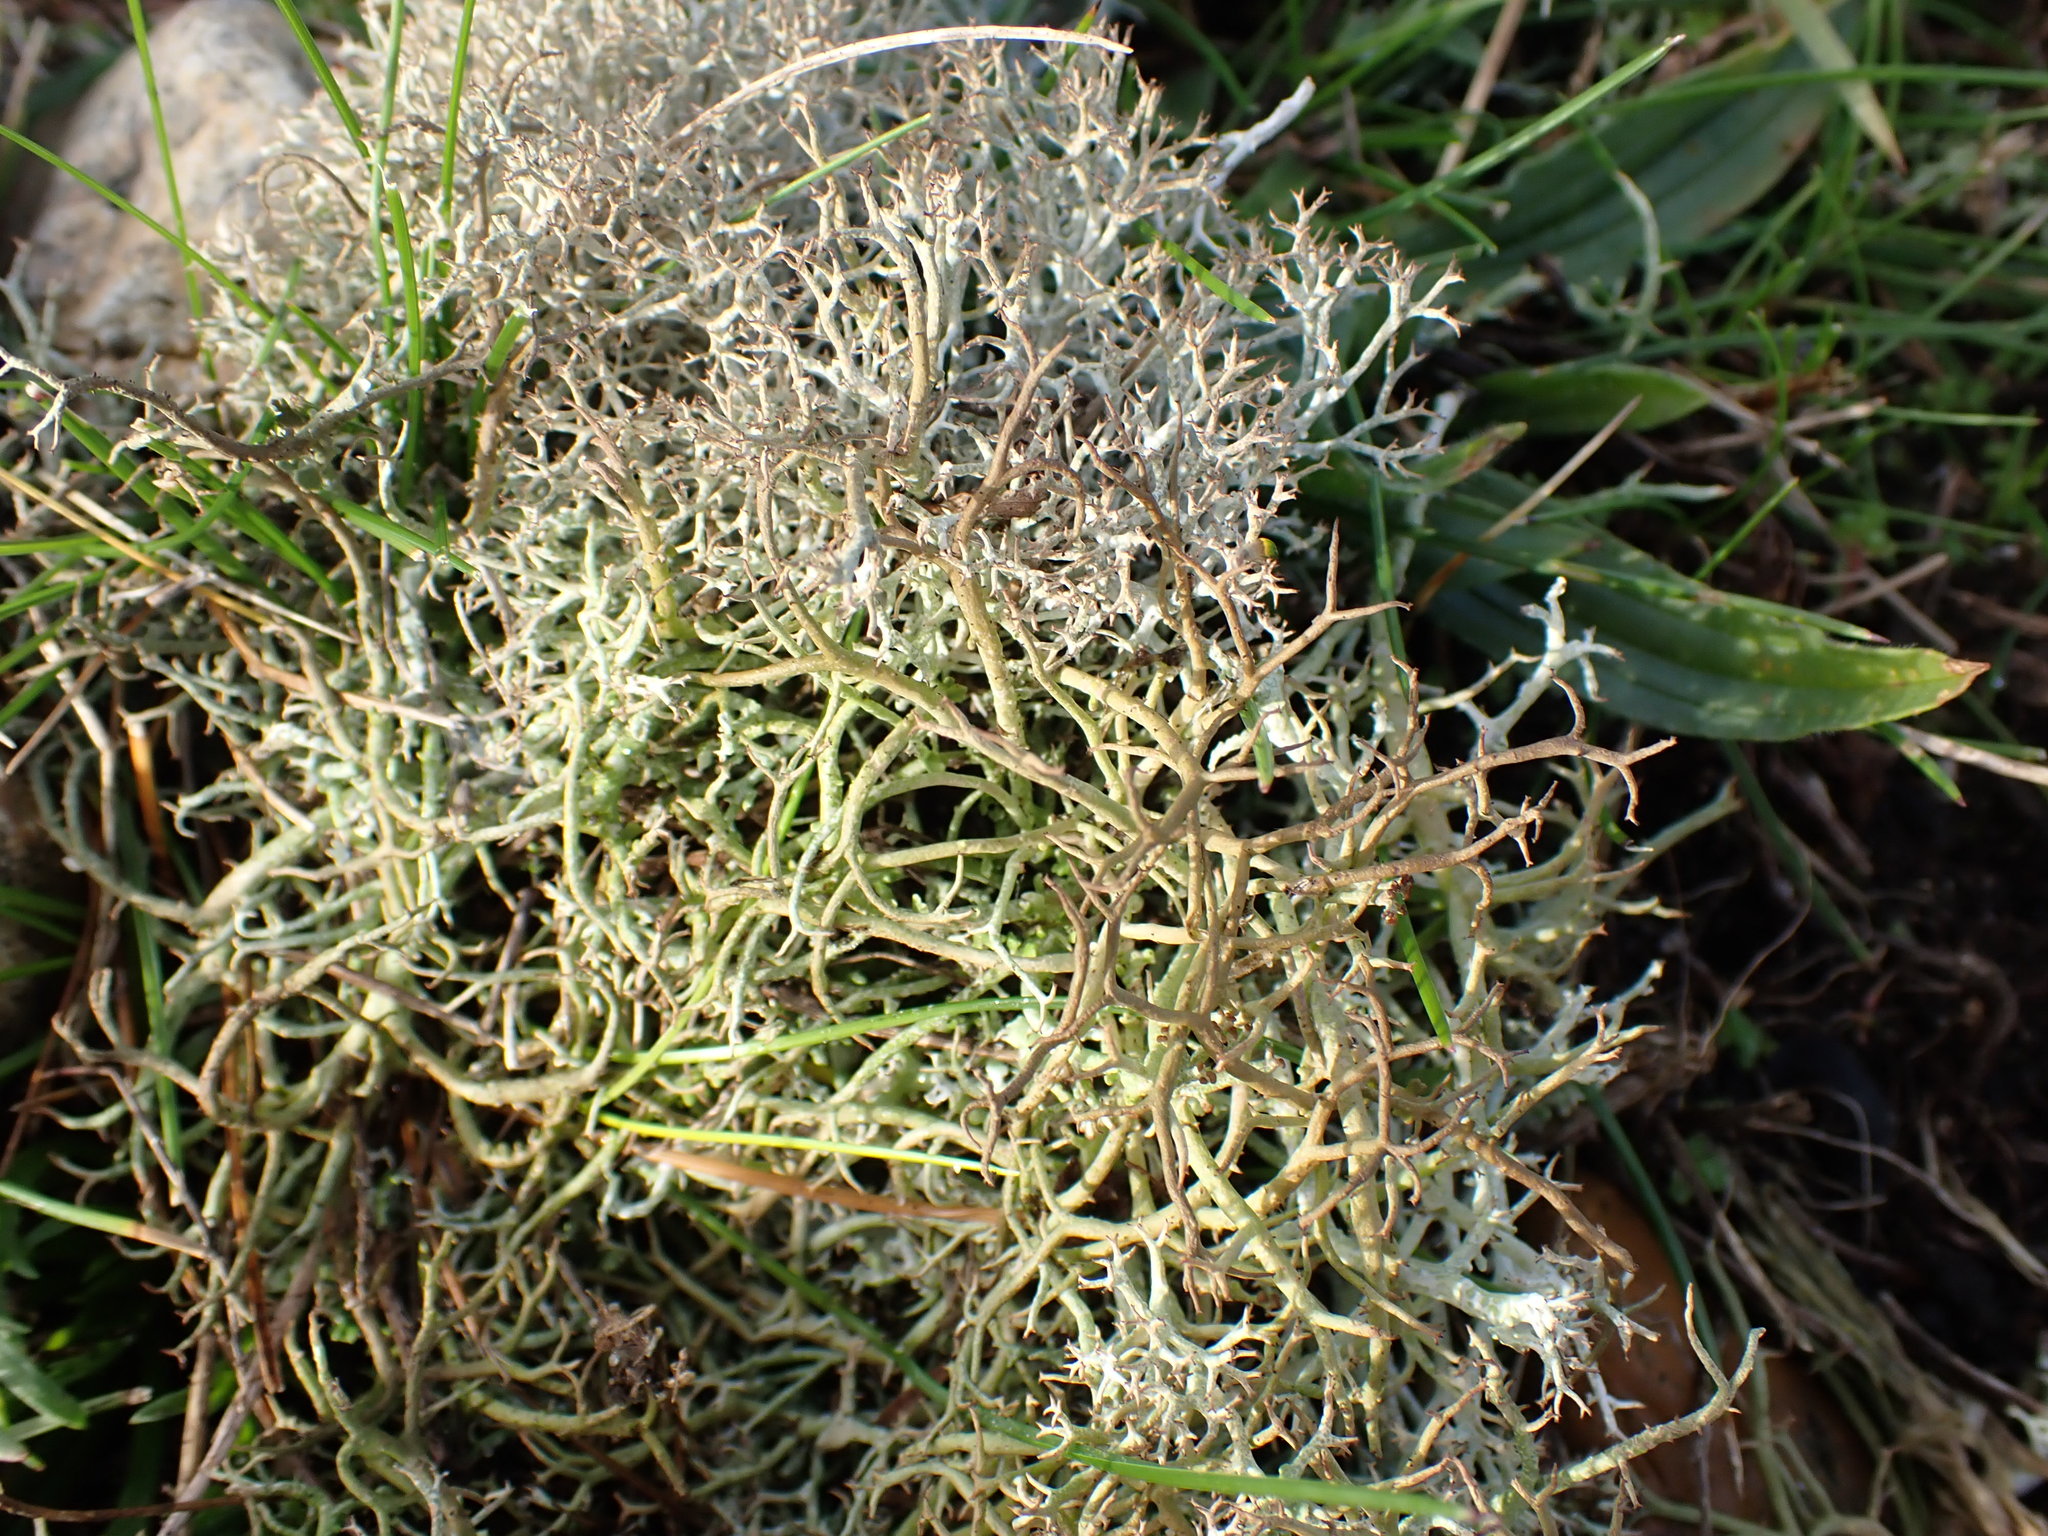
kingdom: Fungi
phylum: Ascomycota
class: Lecanoromycetes
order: Lecanorales
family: Cladoniaceae
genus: Cladonia
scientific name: Cladonia furcata
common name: Many-forked cladonia
